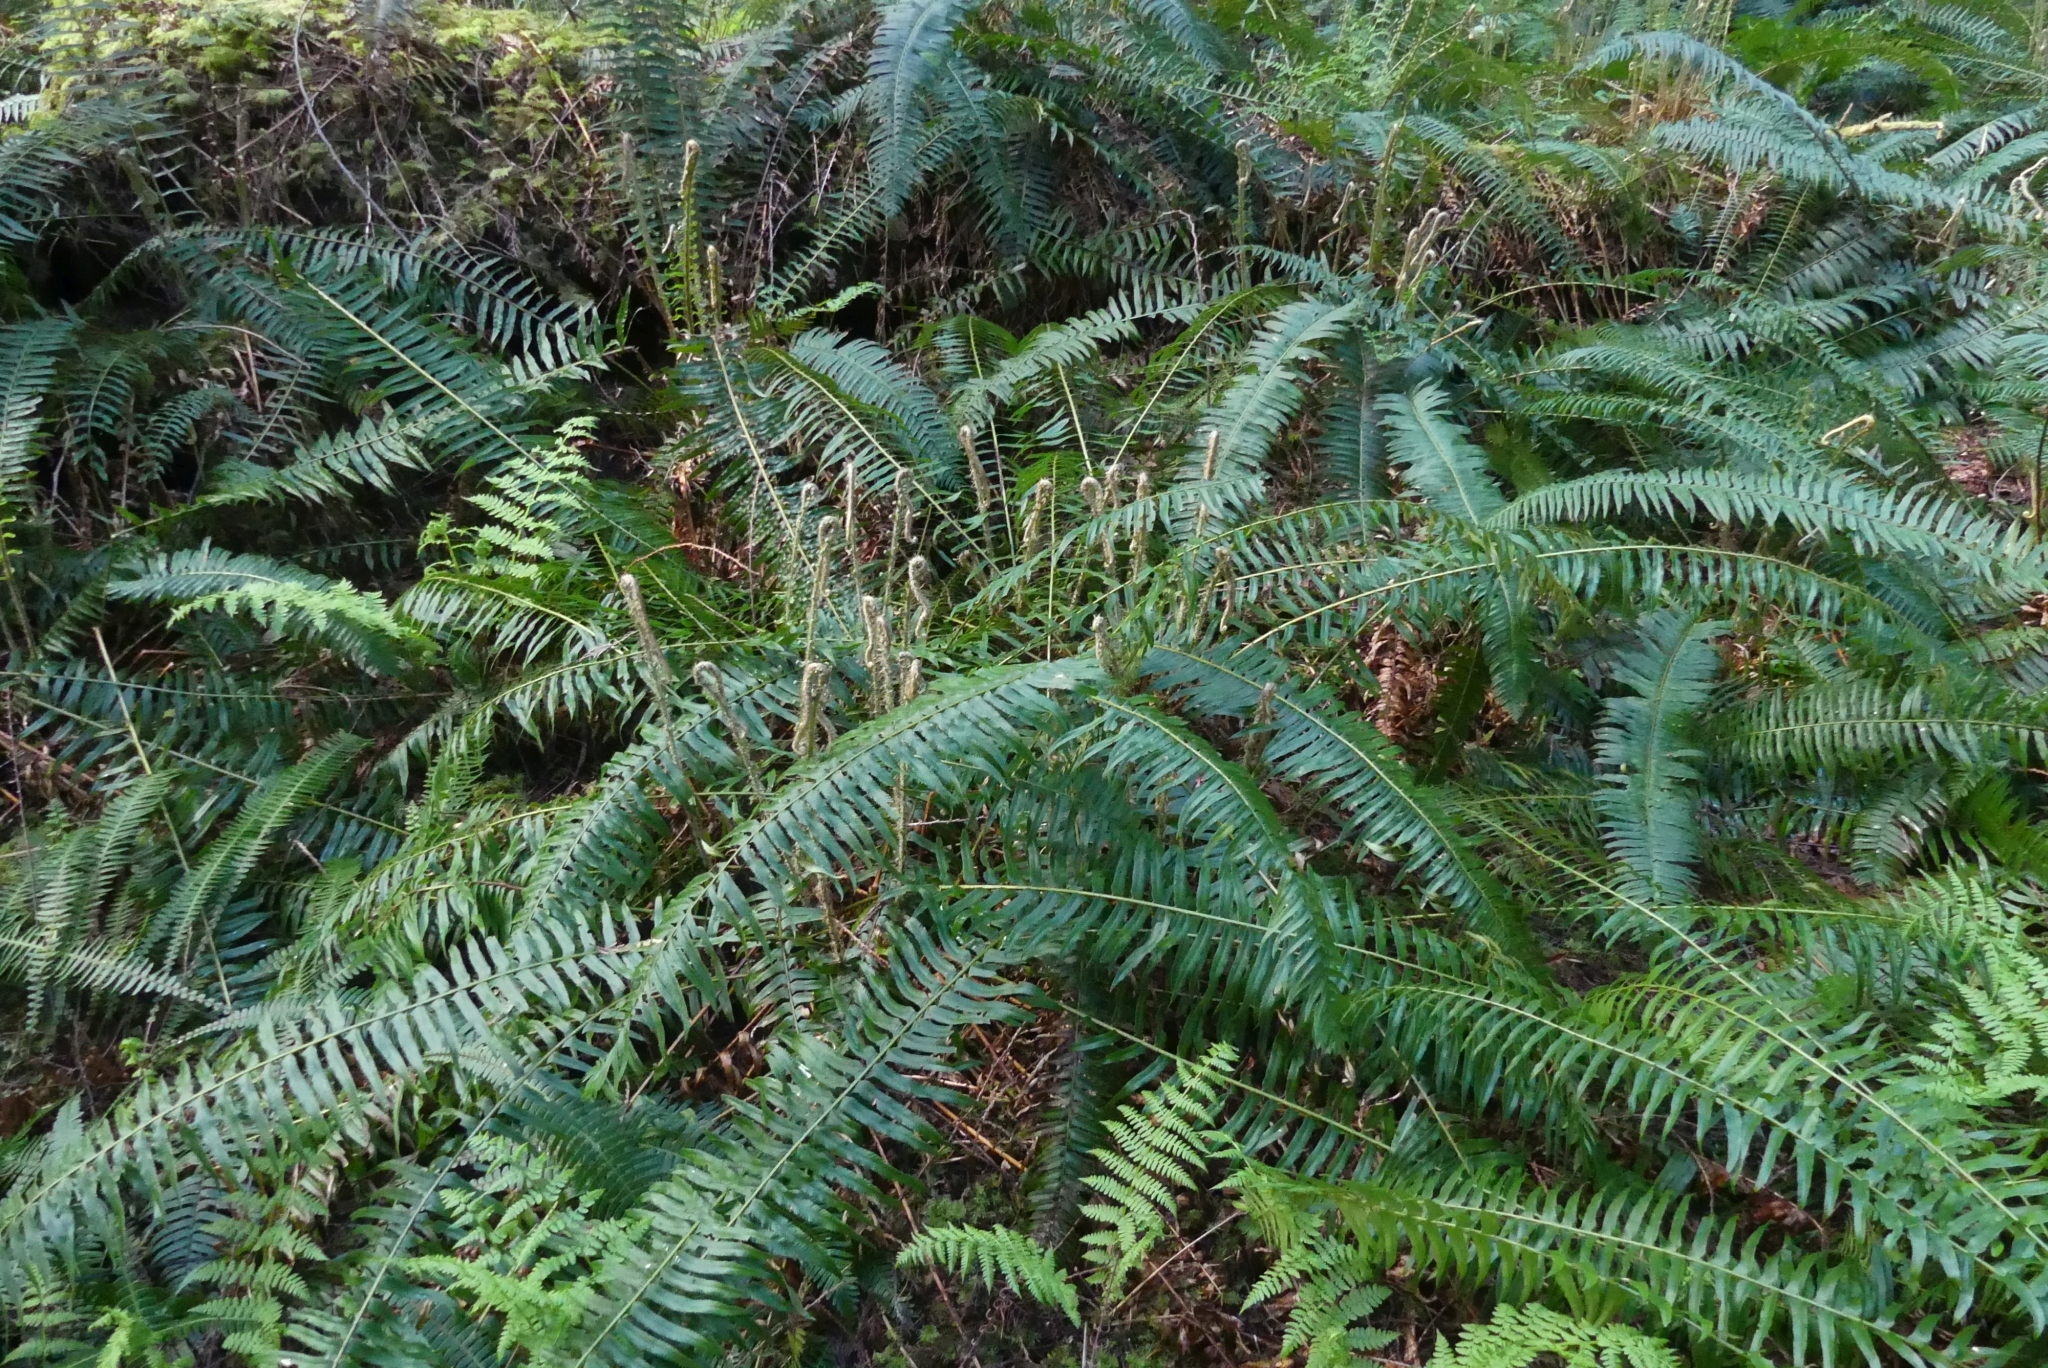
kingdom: Plantae
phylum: Tracheophyta
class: Polypodiopsida
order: Polypodiales
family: Dryopteridaceae
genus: Polystichum
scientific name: Polystichum munitum
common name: Western sword-fern
